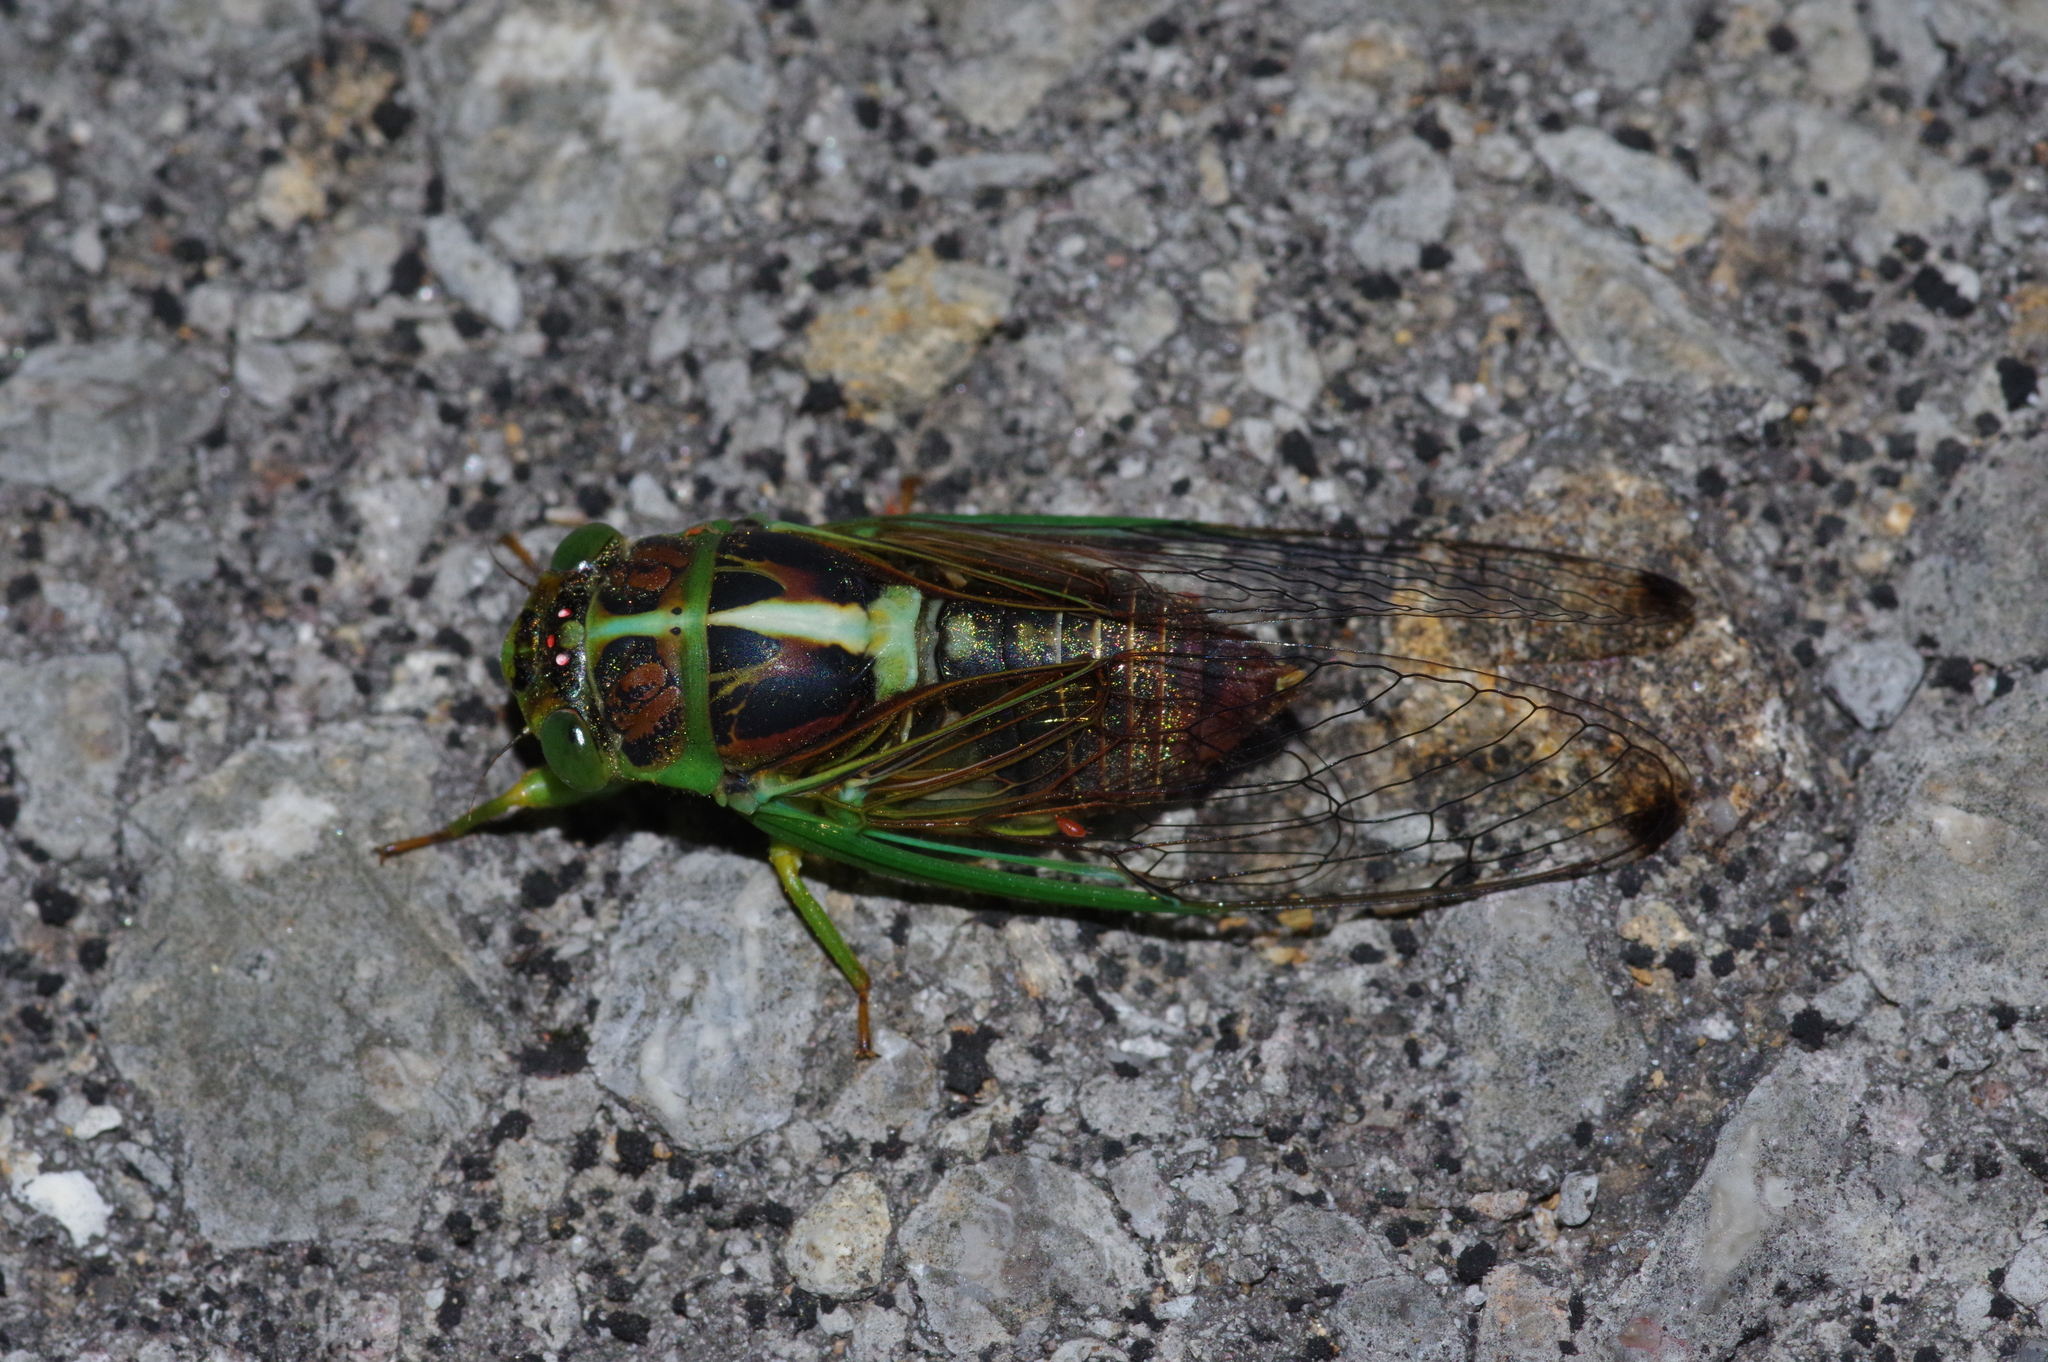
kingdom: Animalia
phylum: Arthropoda
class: Insecta
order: Hemiptera
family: Cicadidae
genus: Vagitanus
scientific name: Vagitanus terminalis
